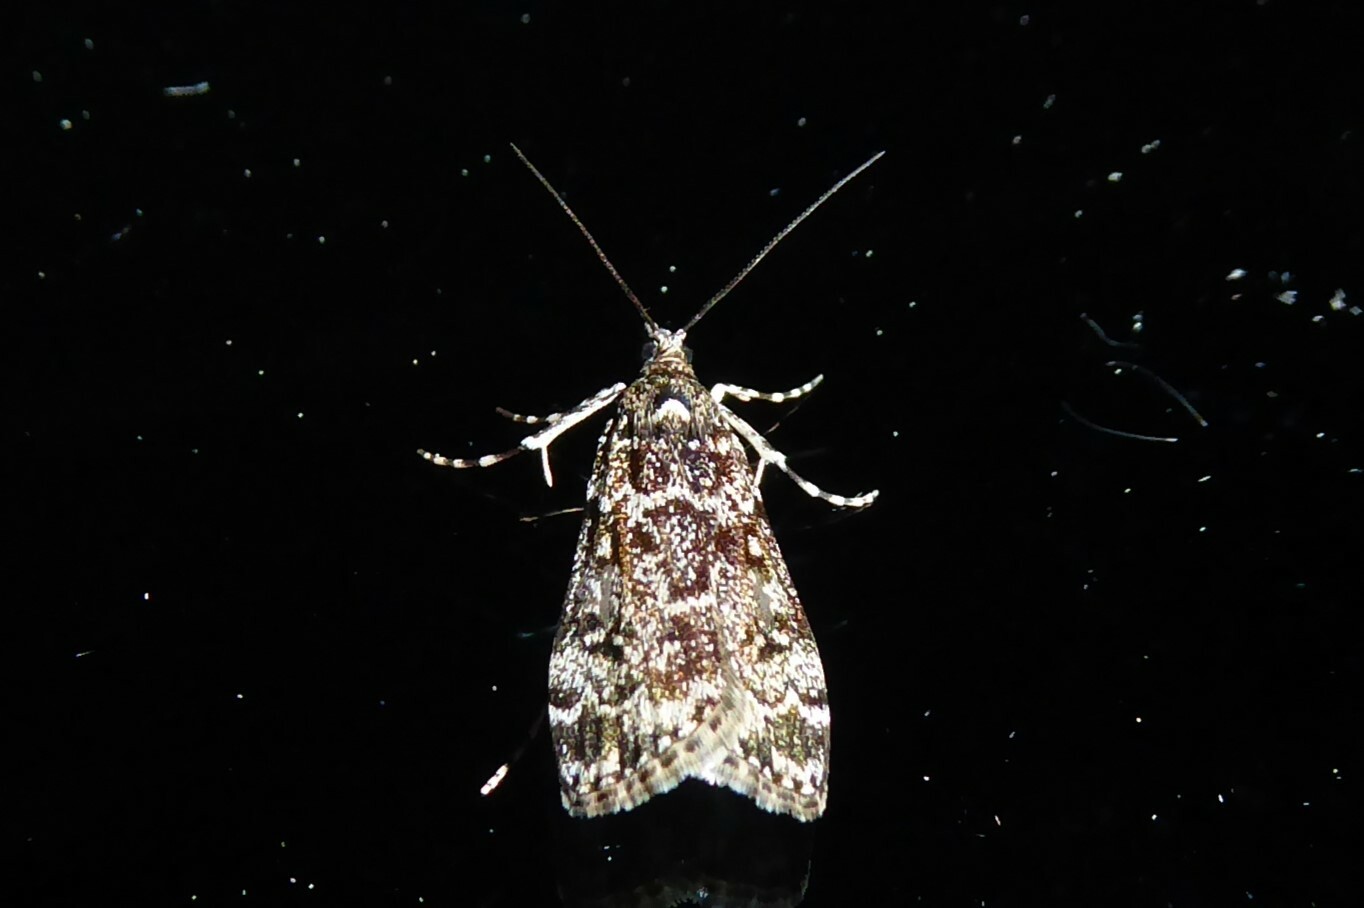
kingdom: Animalia
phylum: Arthropoda
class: Insecta
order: Lepidoptera
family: Crambidae
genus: Eudonia
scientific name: Eudonia philerga
